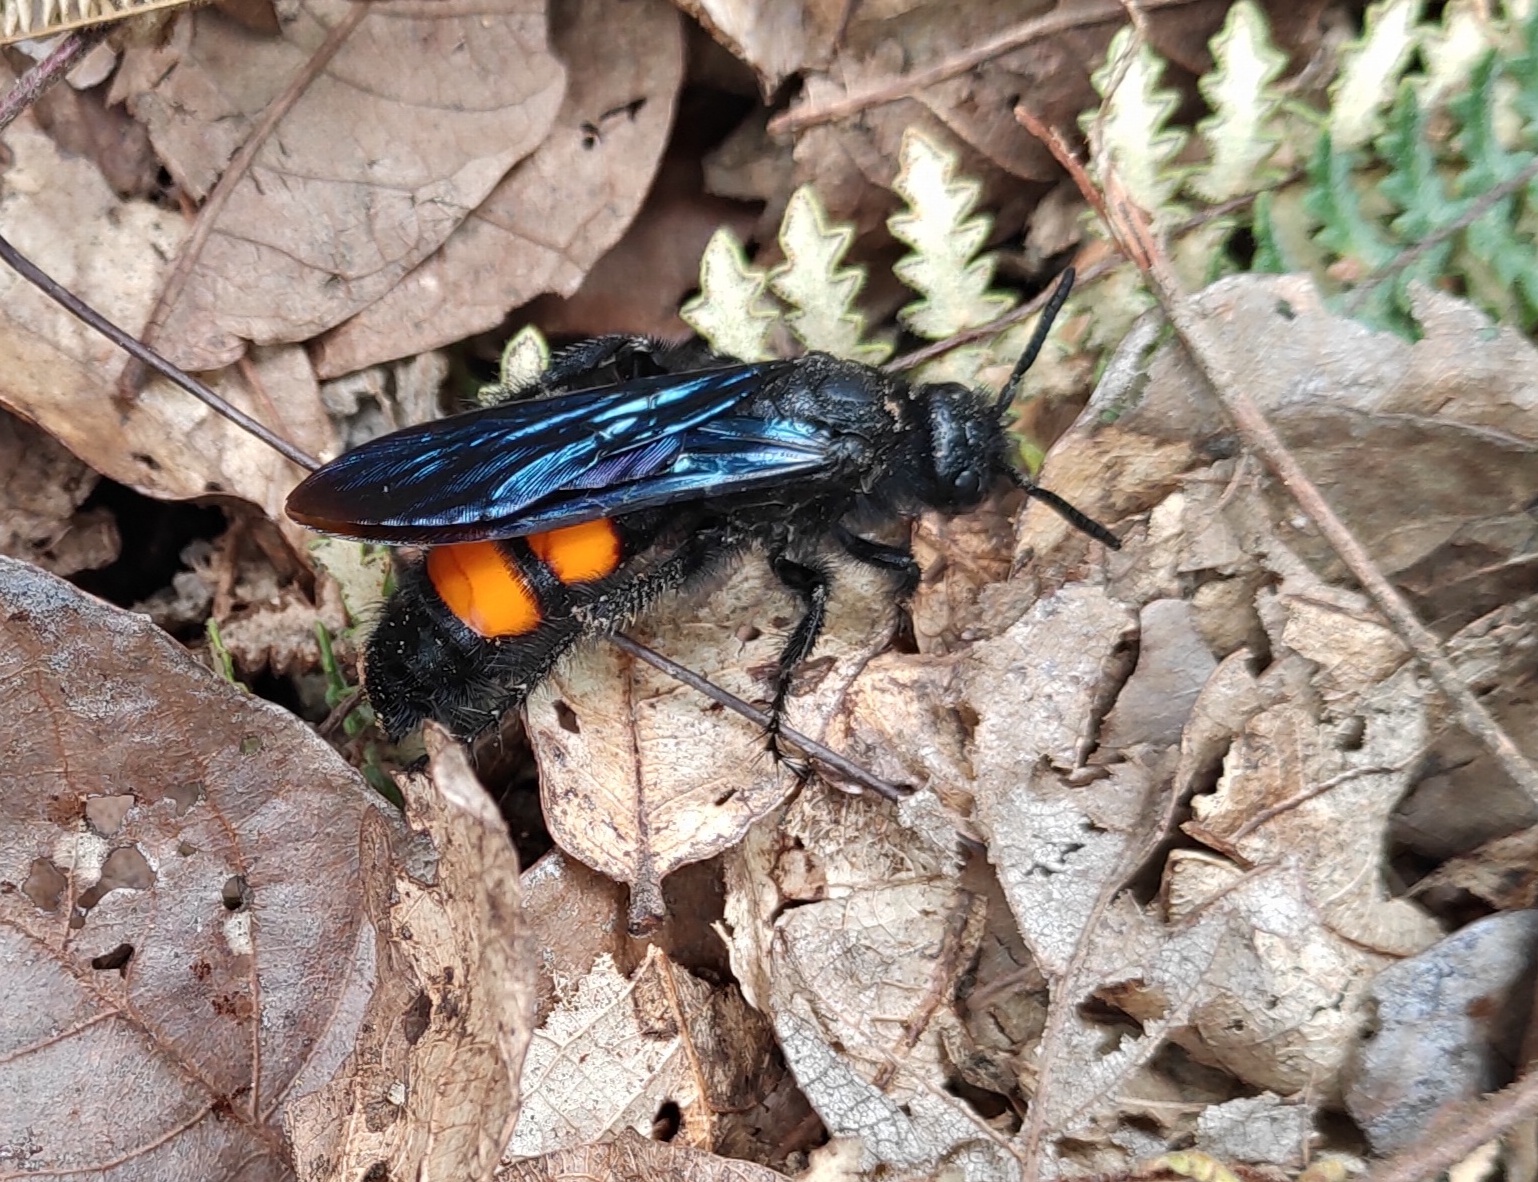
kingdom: Animalia
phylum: Arthropoda
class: Insecta
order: Hymenoptera
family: Scoliidae
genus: Pygodasis
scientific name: Pygodasis ephippium
